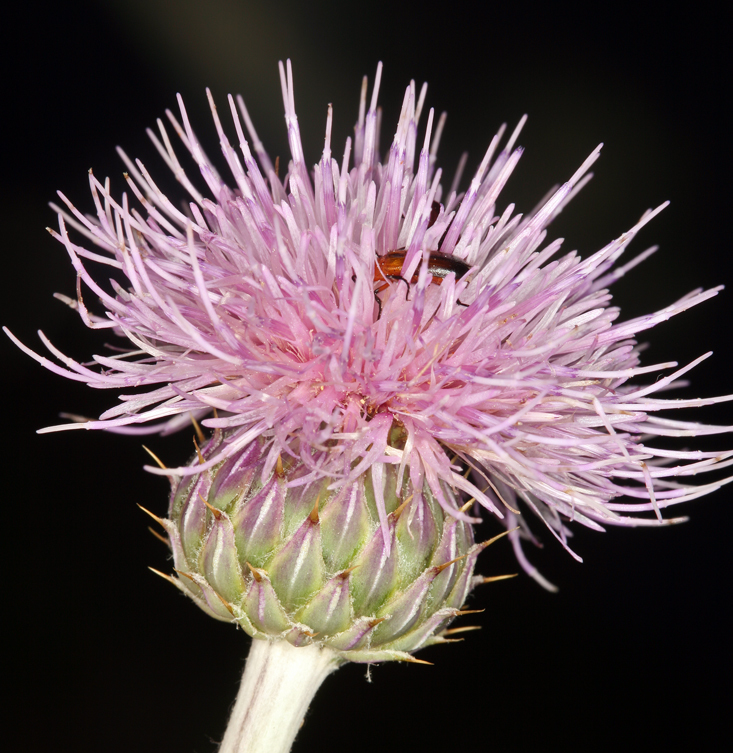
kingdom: Plantae
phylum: Tracheophyta
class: Magnoliopsida
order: Asterales
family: Asteraceae
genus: Cirsium
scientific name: Cirsium mohavense
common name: Mojave thistle
